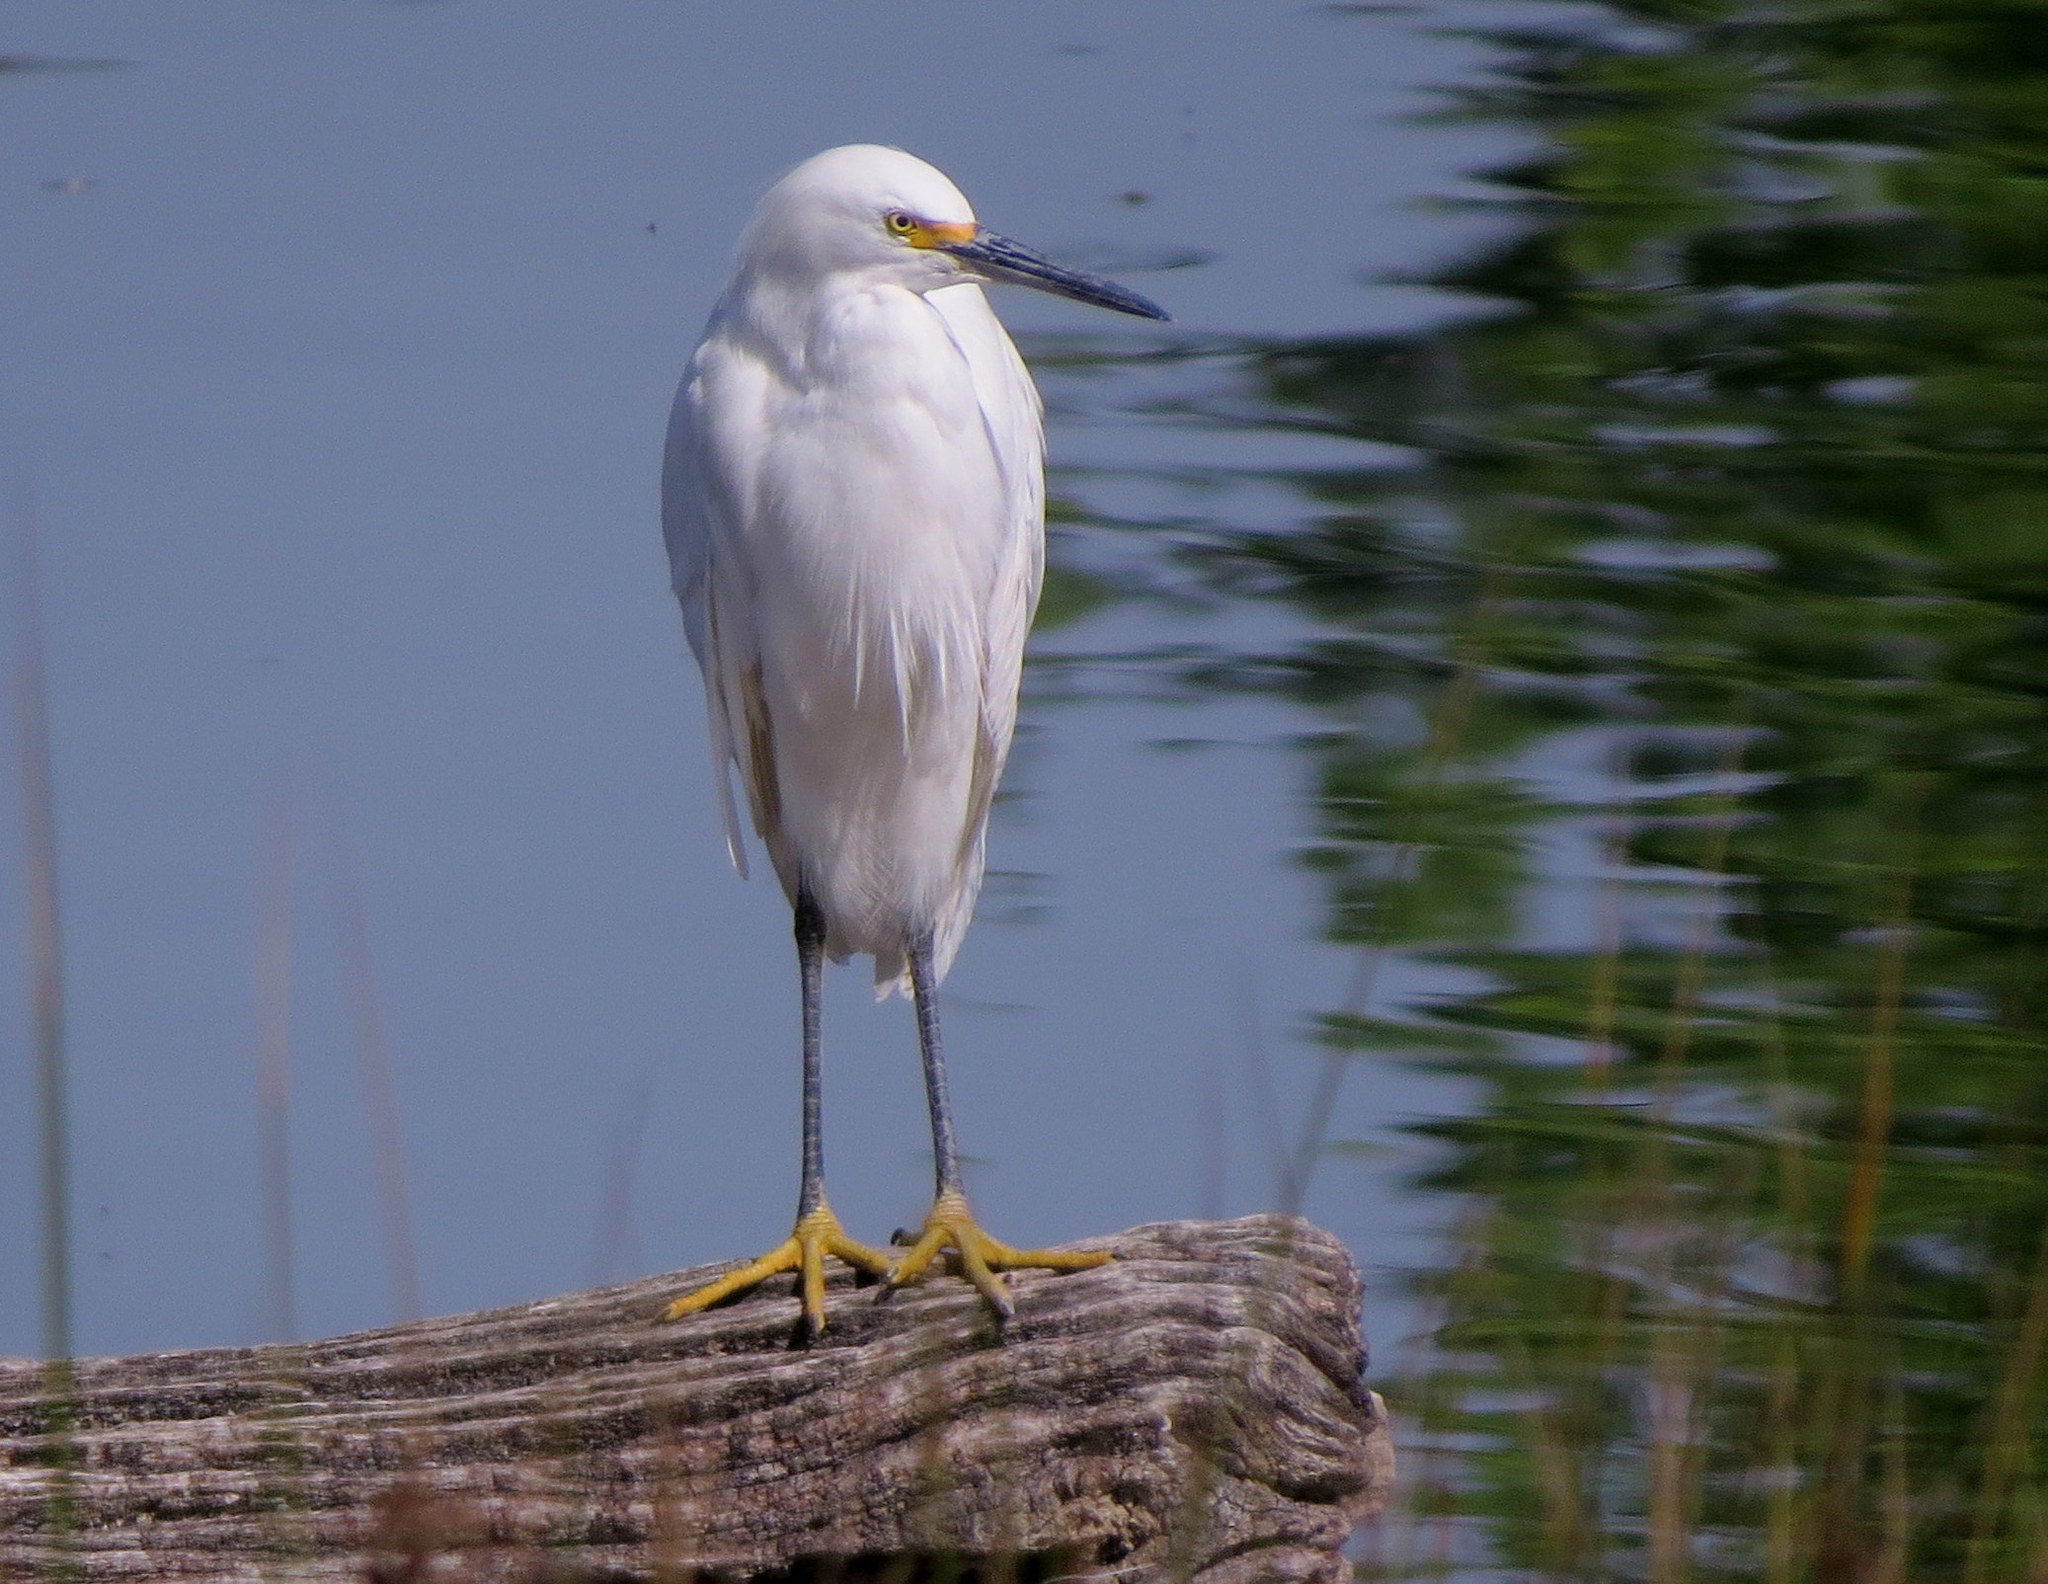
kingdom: Animalia
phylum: Chordata
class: Aves
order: Pelecaniformes
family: Ardeidae
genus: Egretta
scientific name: Egretta thula
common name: Snowy egret
